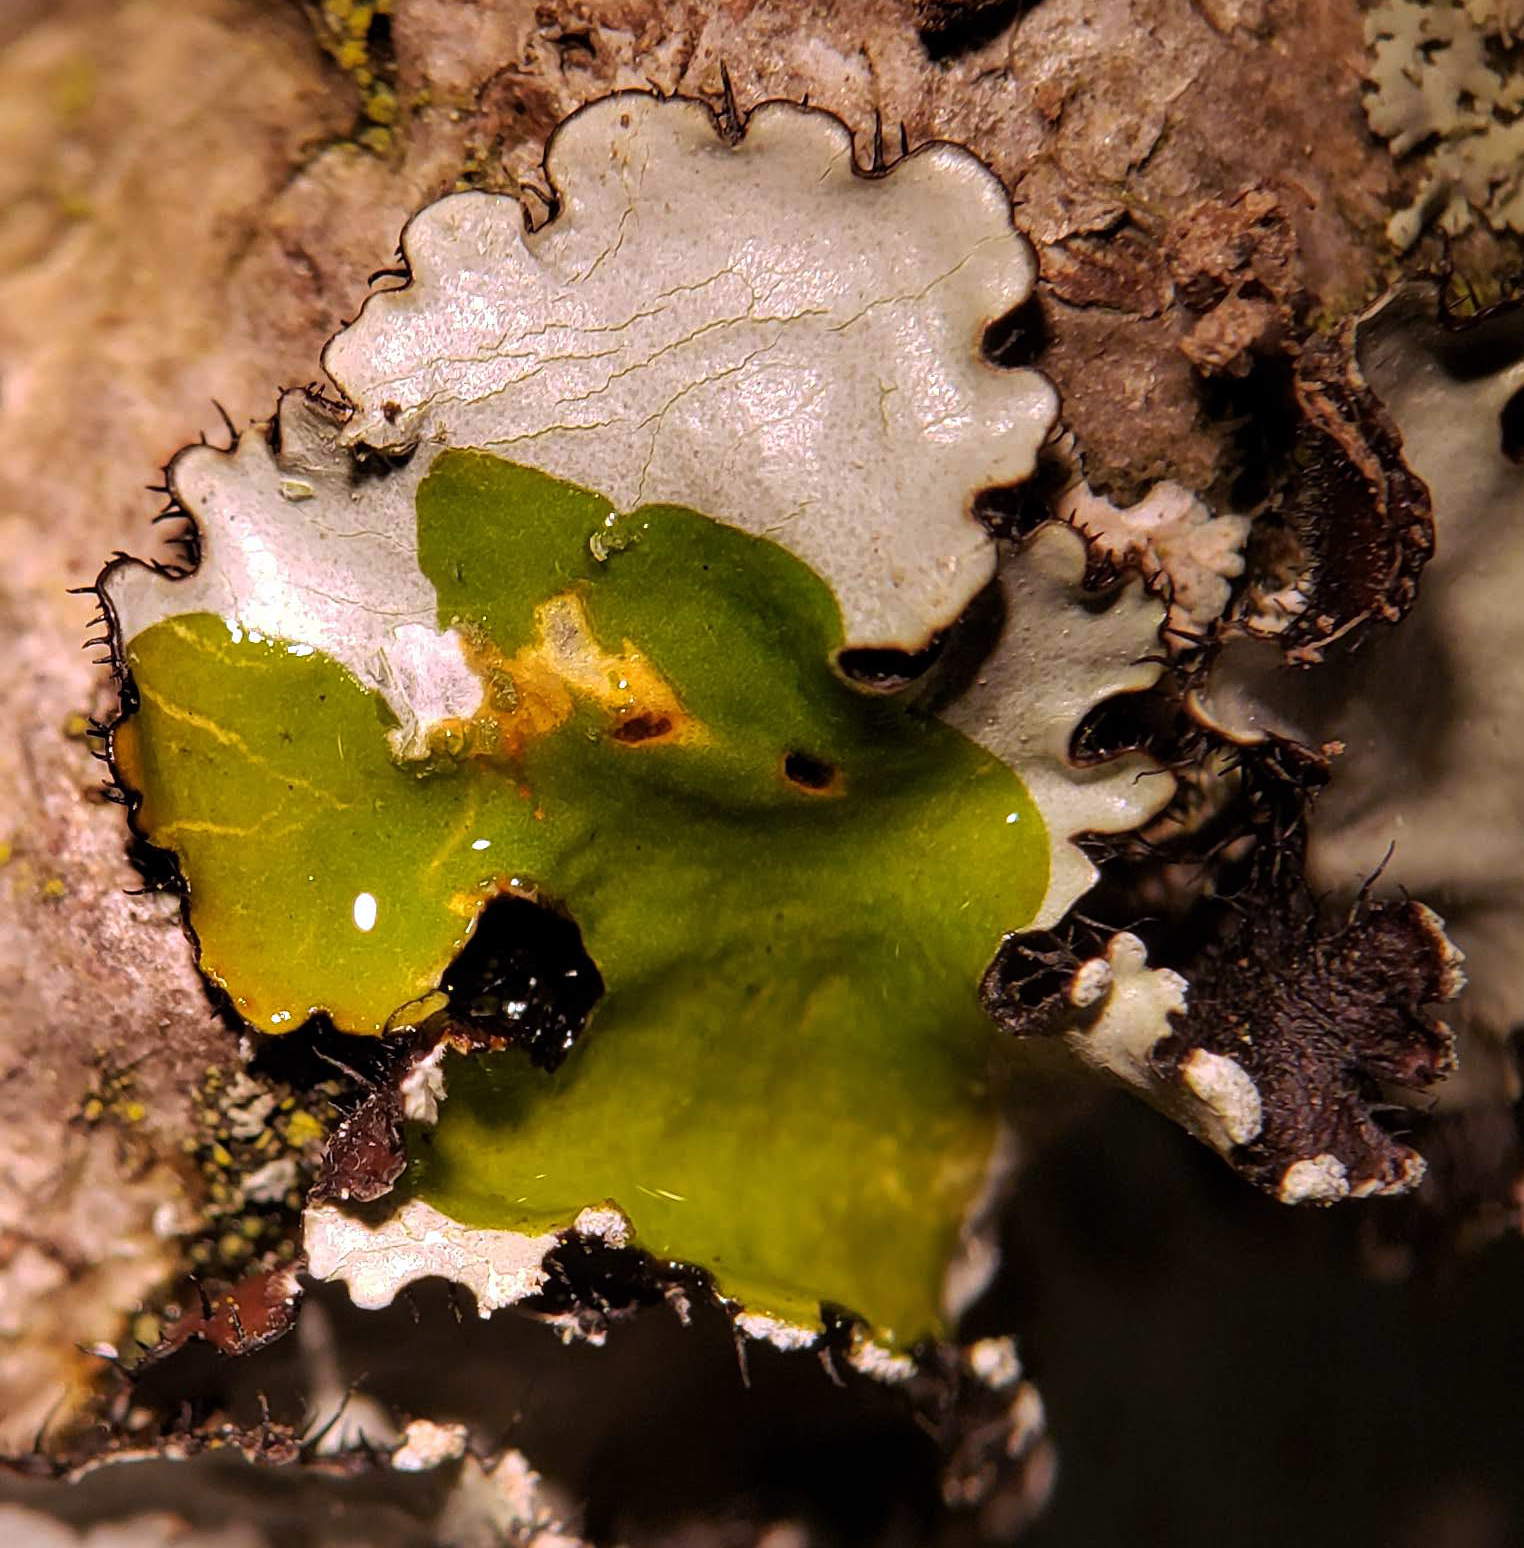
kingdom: Fungi
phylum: Ascomycota
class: Lecanoromycetes
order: Lecanorales
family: Parmeliaceae
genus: Parmotrema
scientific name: Parmotrema reticulatum
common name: Black sheet lichen
